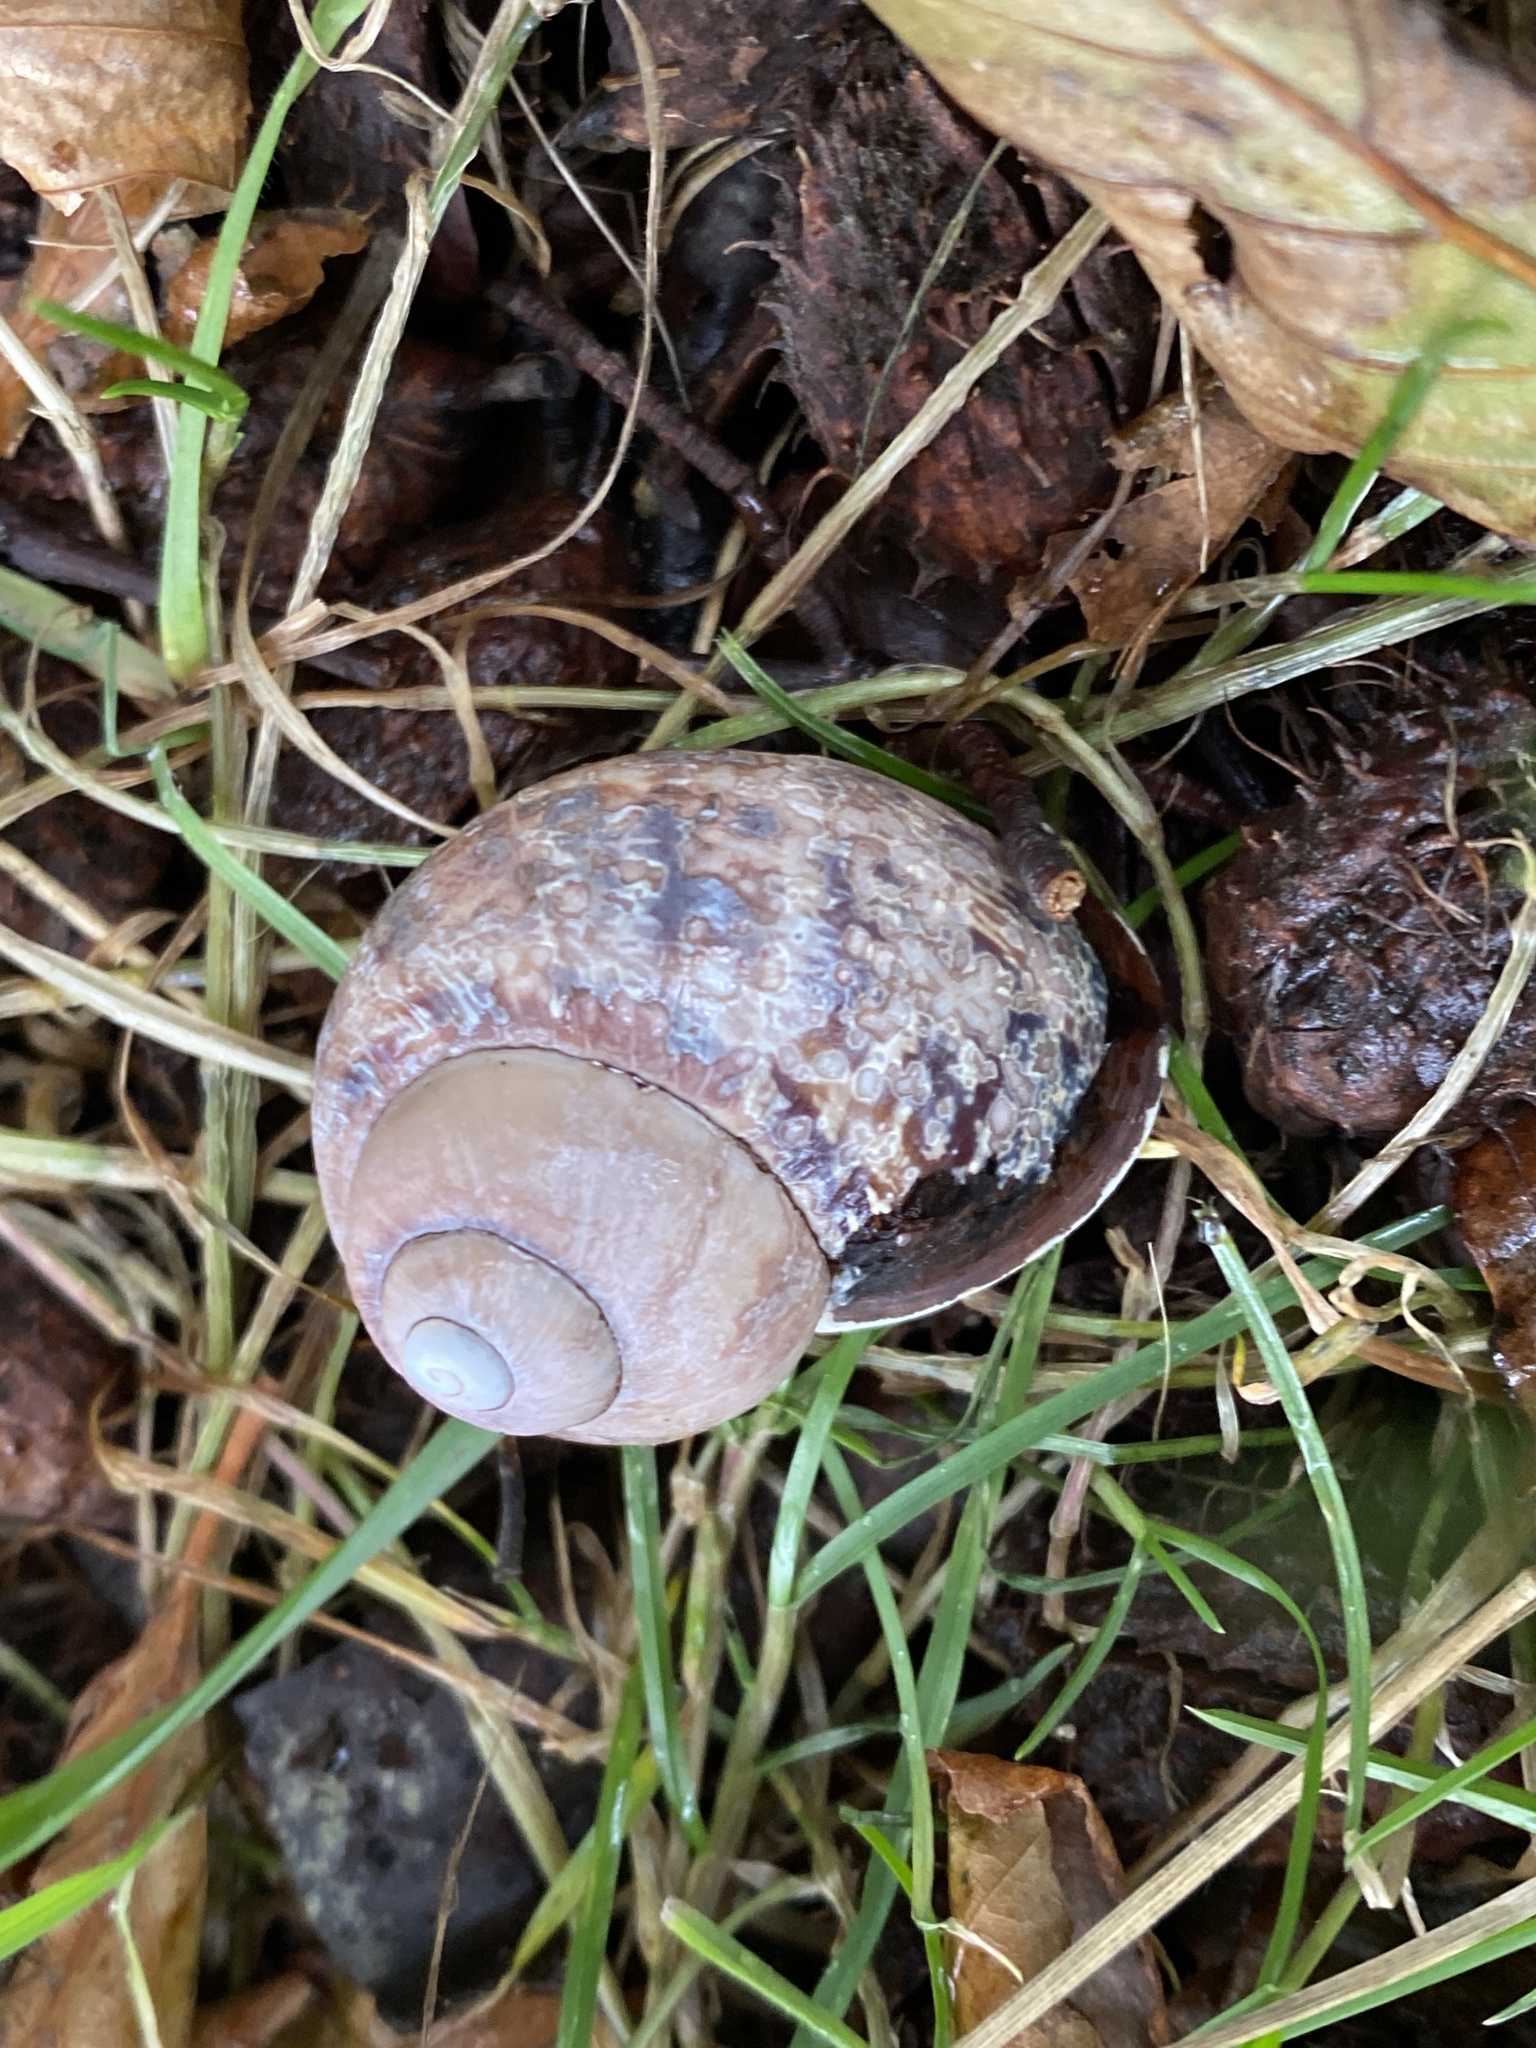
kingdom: Animalia
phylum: Mollusca
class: Gastropoda
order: Stylommatophora
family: Helicidae
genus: Cornu
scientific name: Cornu aspersum
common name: Brown garden snail
